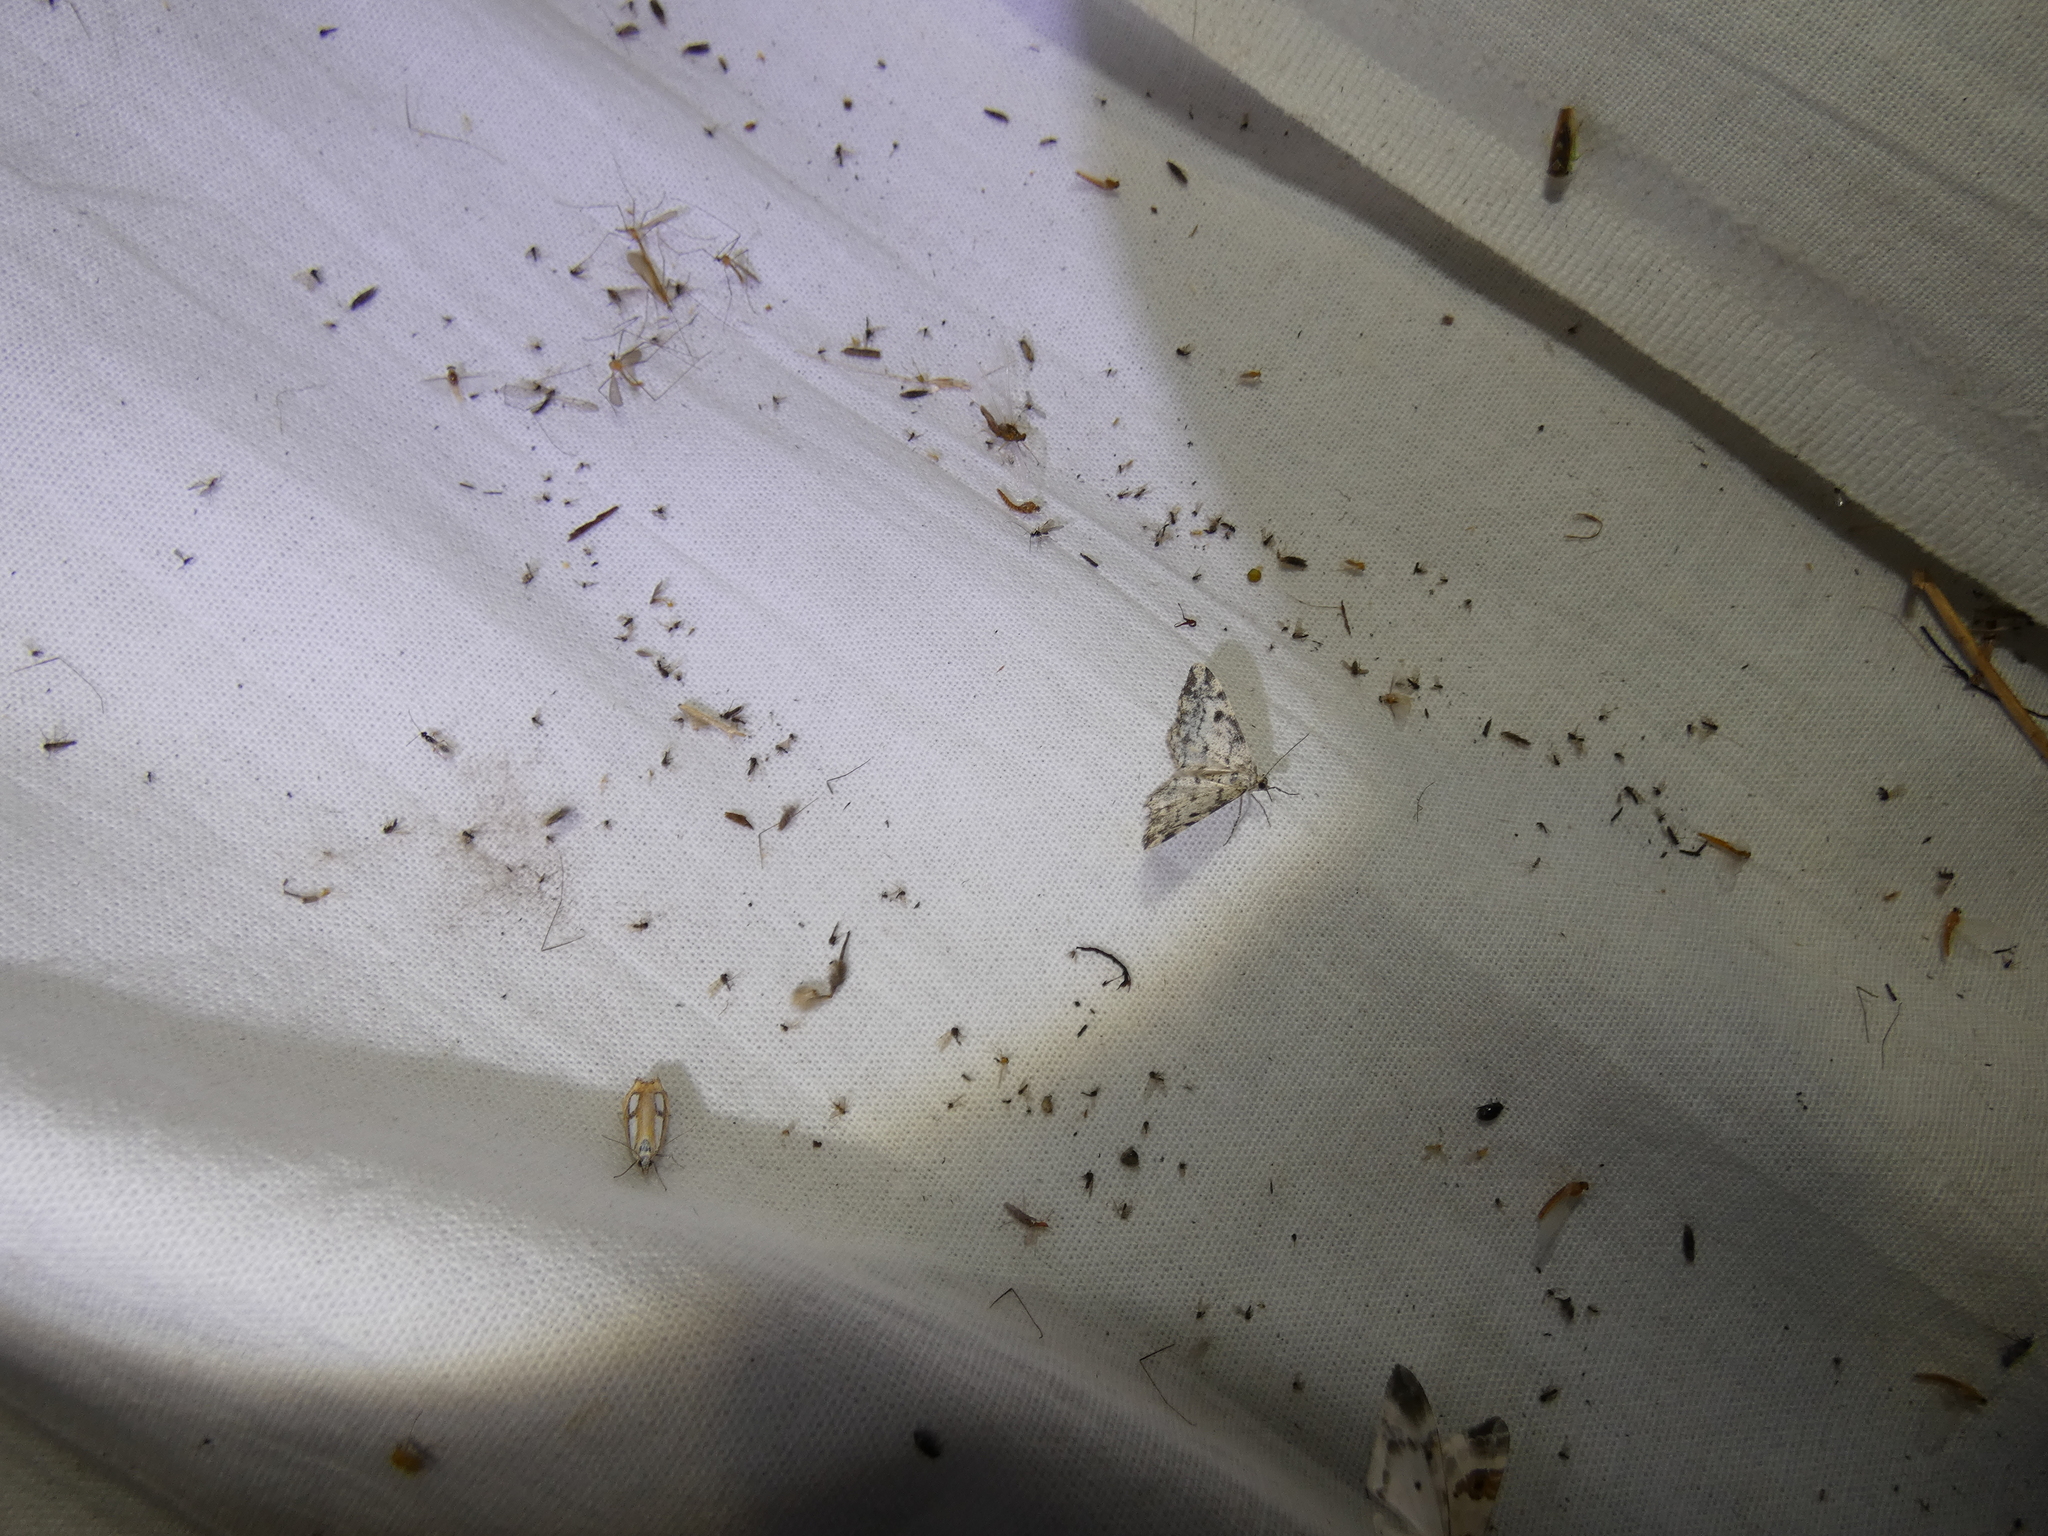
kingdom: Animalia
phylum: Arthropoda
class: Insecta
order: Lepidoptera
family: Geometridae
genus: Alcis
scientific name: Alcis jubata
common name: Dotted carpet
